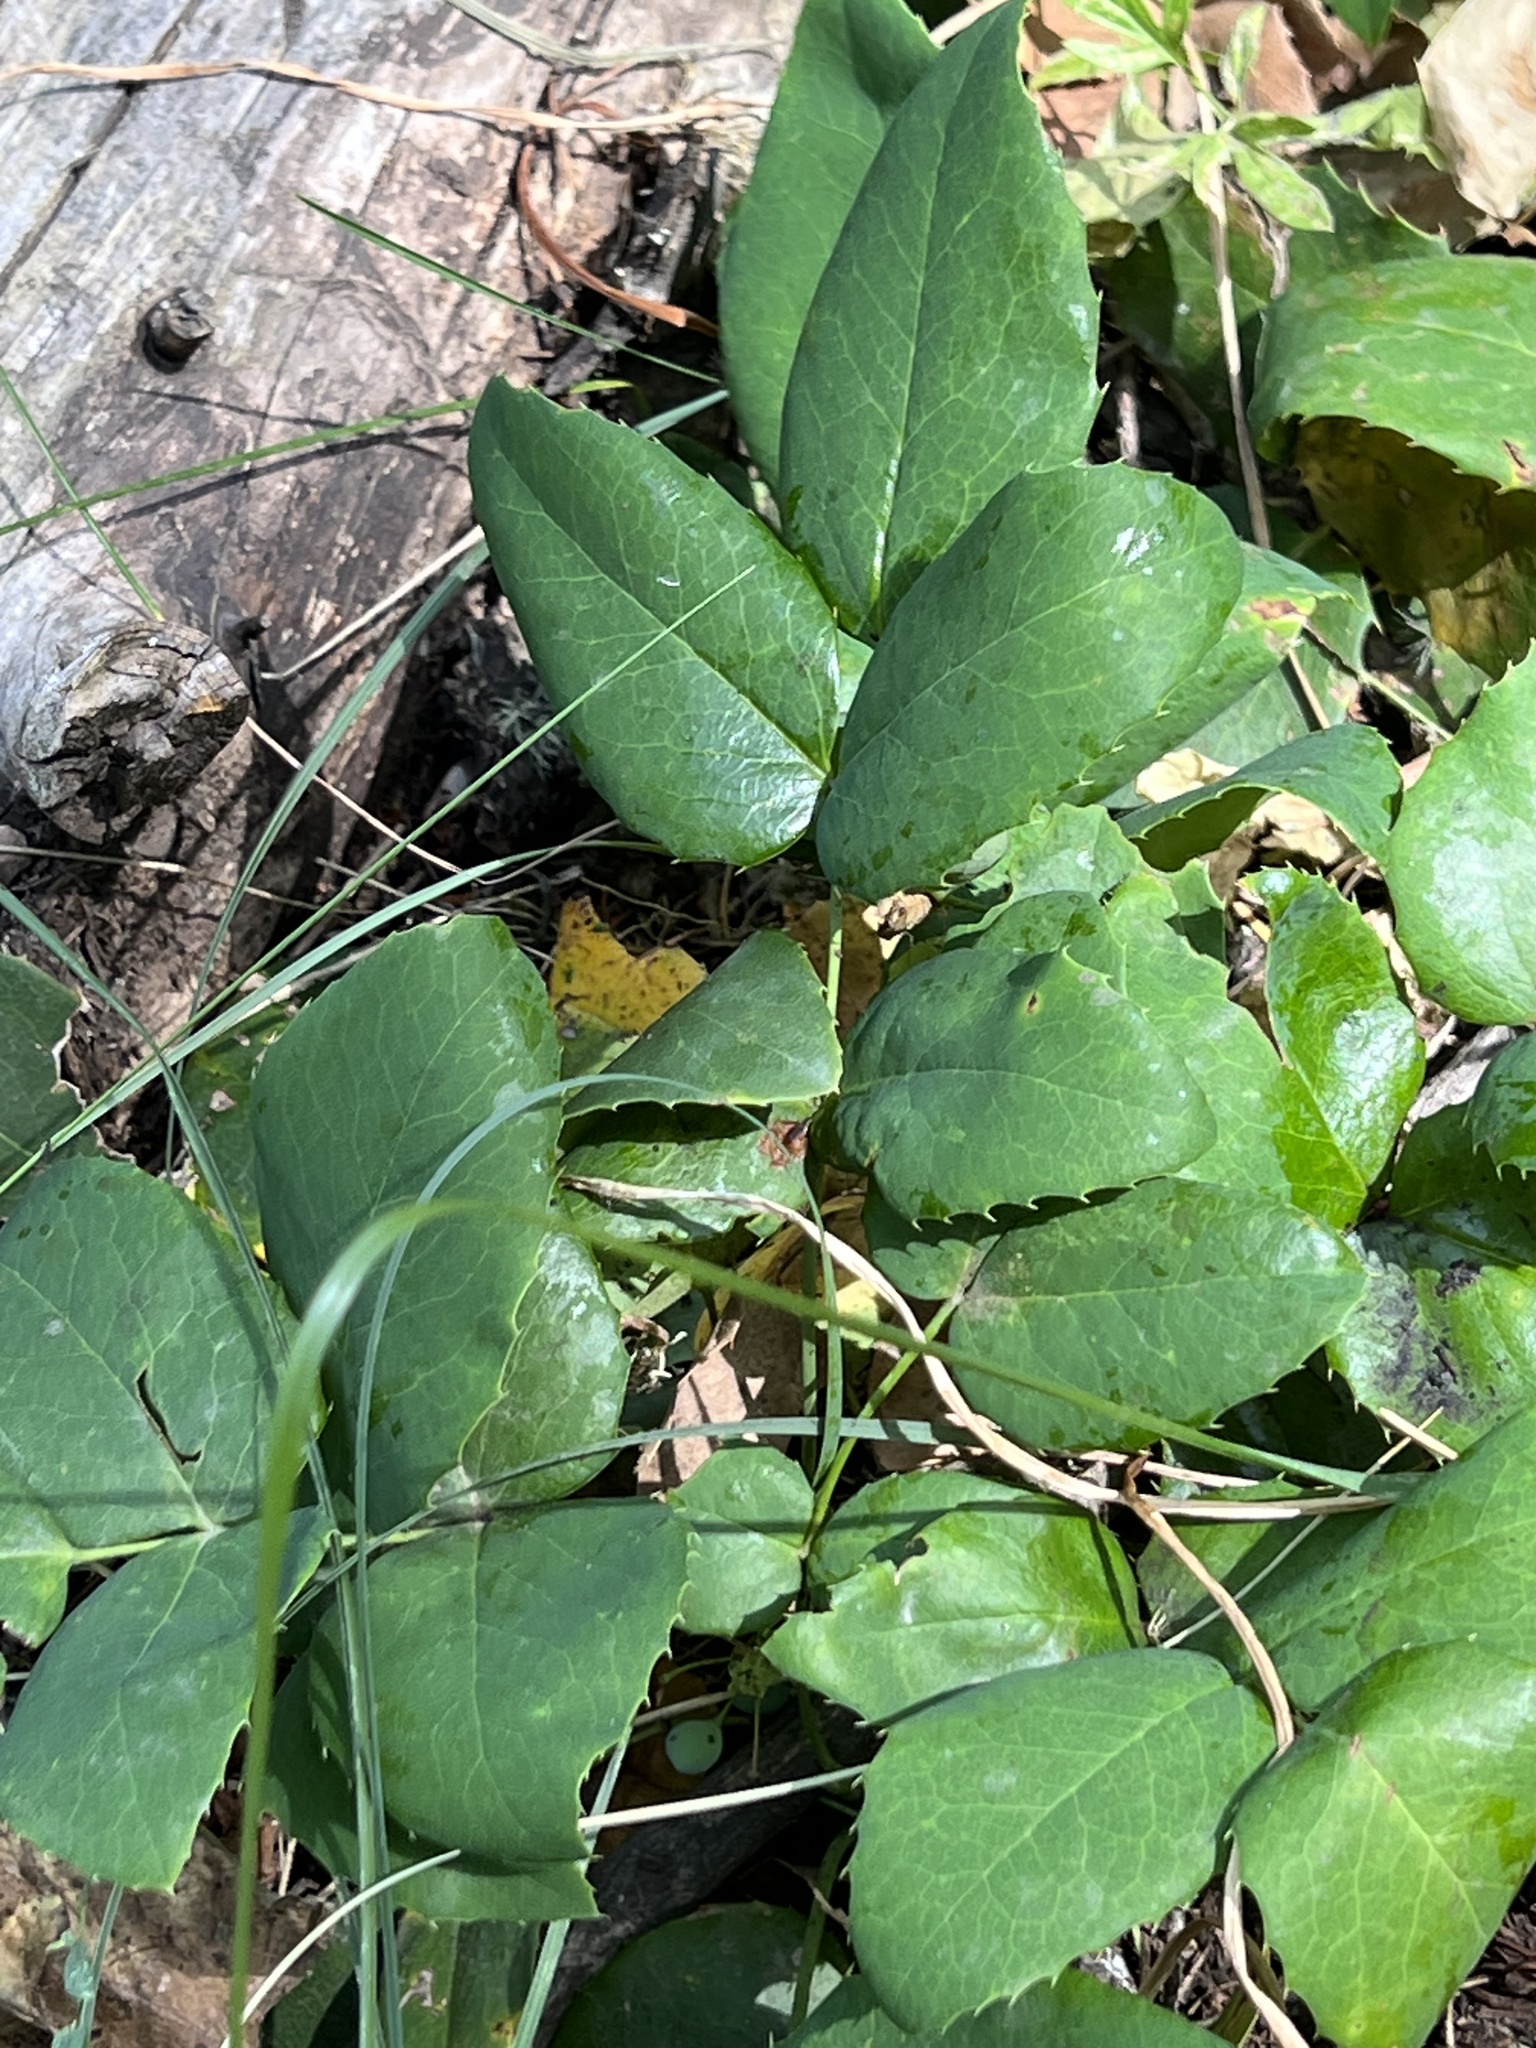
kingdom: Plantae
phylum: Tracheophyta
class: Magnoliopsida
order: Ranunculales
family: Berberidaceae
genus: Mahonia
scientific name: Mahonia repens
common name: Creeping oregon-grape
